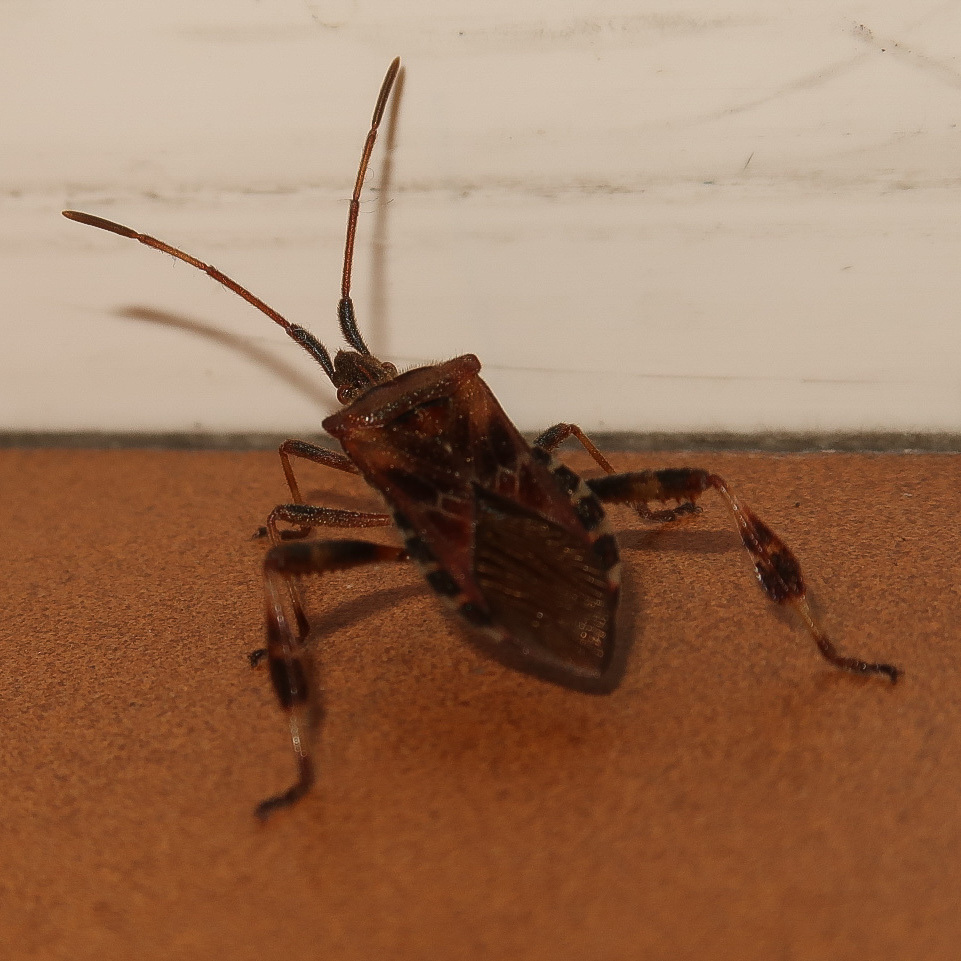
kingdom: Animalia
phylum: Arthropoda
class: Insecta
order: Hemiptera
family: Coreidae
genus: Leptoglossus
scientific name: Leptoglossus occidentalis
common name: Western conifer-seed bug
